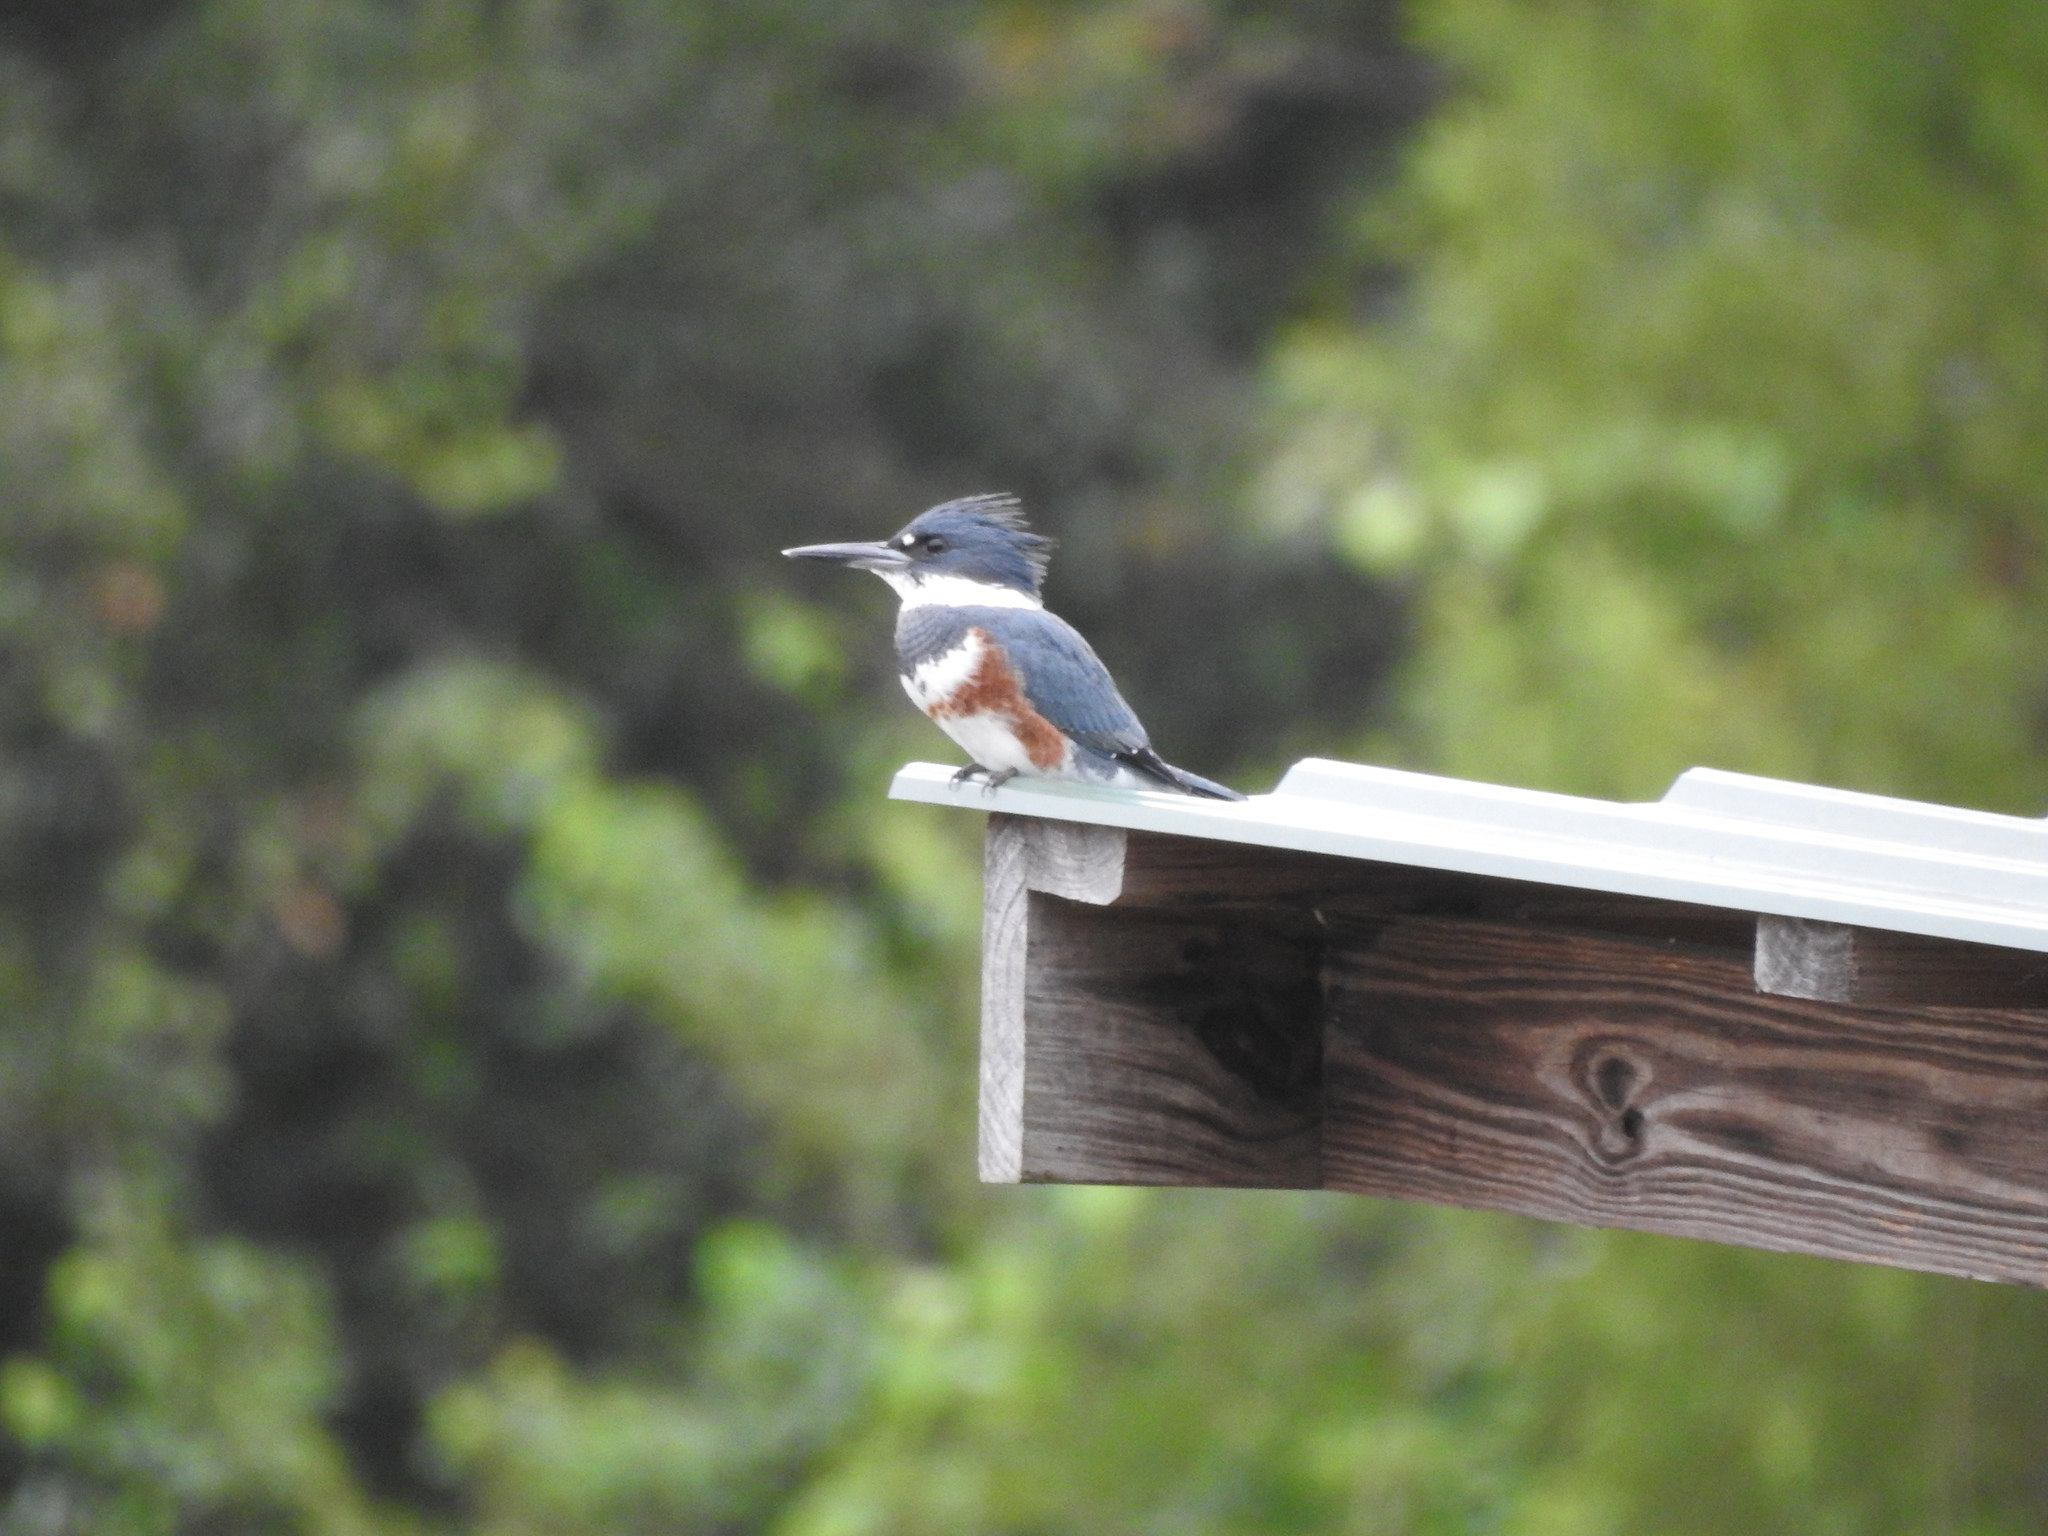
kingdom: Animalia
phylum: Chordata
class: Aves
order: Coraciiformes
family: Alcedinidae
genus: Megaceryle
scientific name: Megaceryle alcyon
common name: Belted kingfisher
